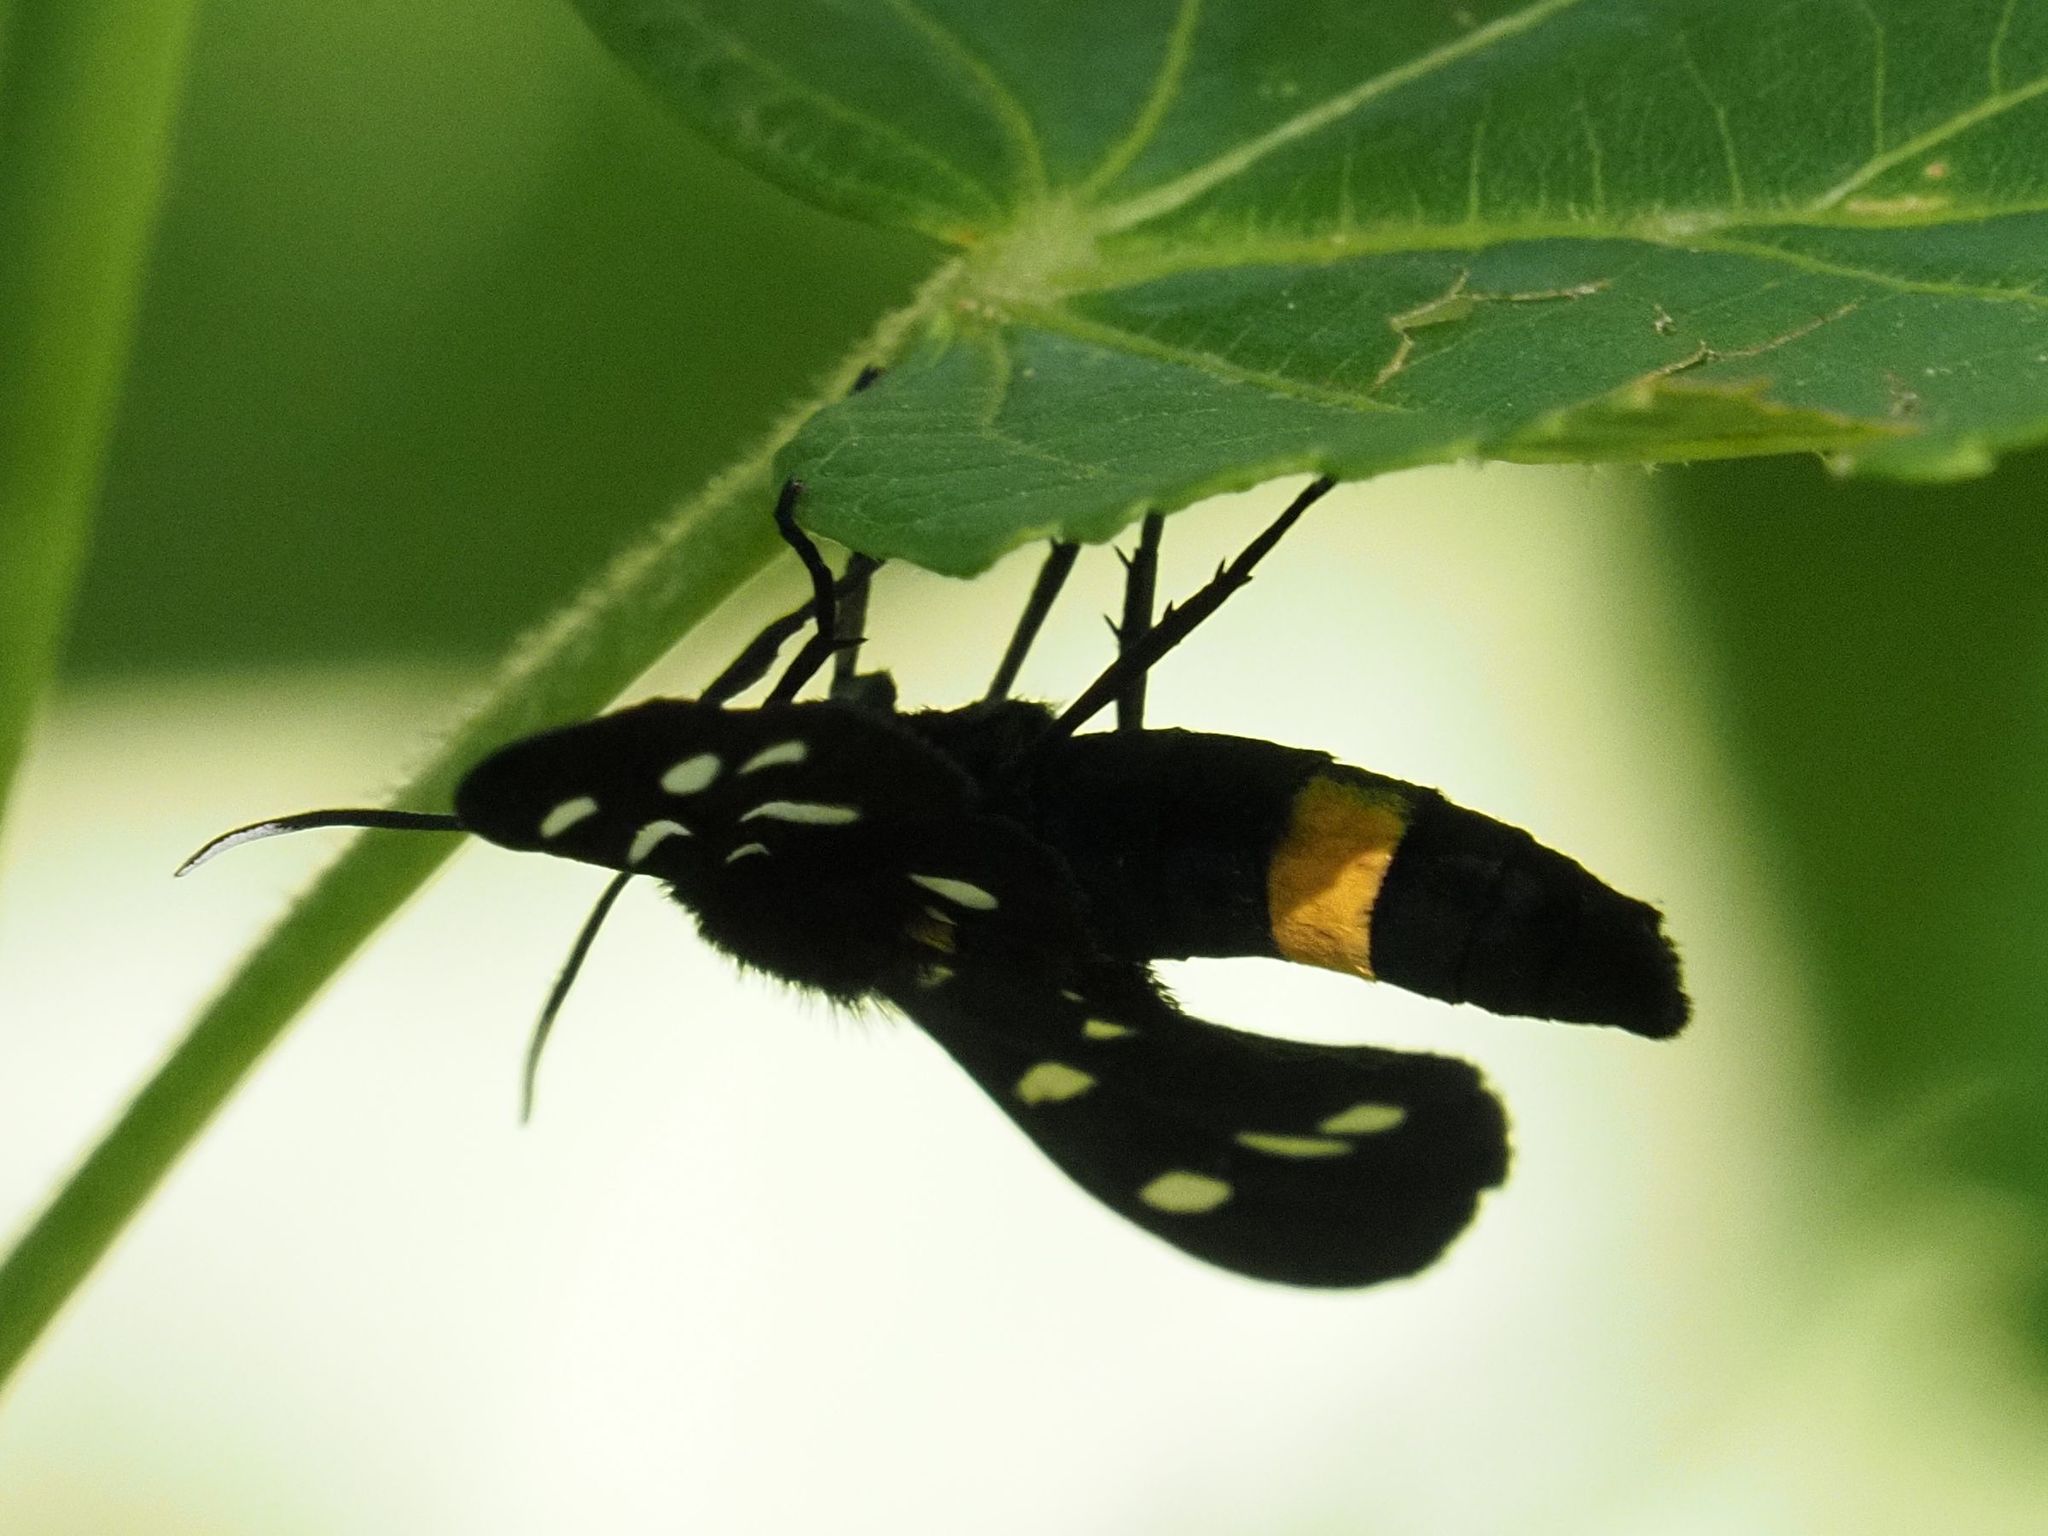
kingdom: Animalia
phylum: Arthropoda
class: Insecta
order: Lepidoptera
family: Erebidae
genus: Amata
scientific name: Amata phegea
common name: Nine-spotted
